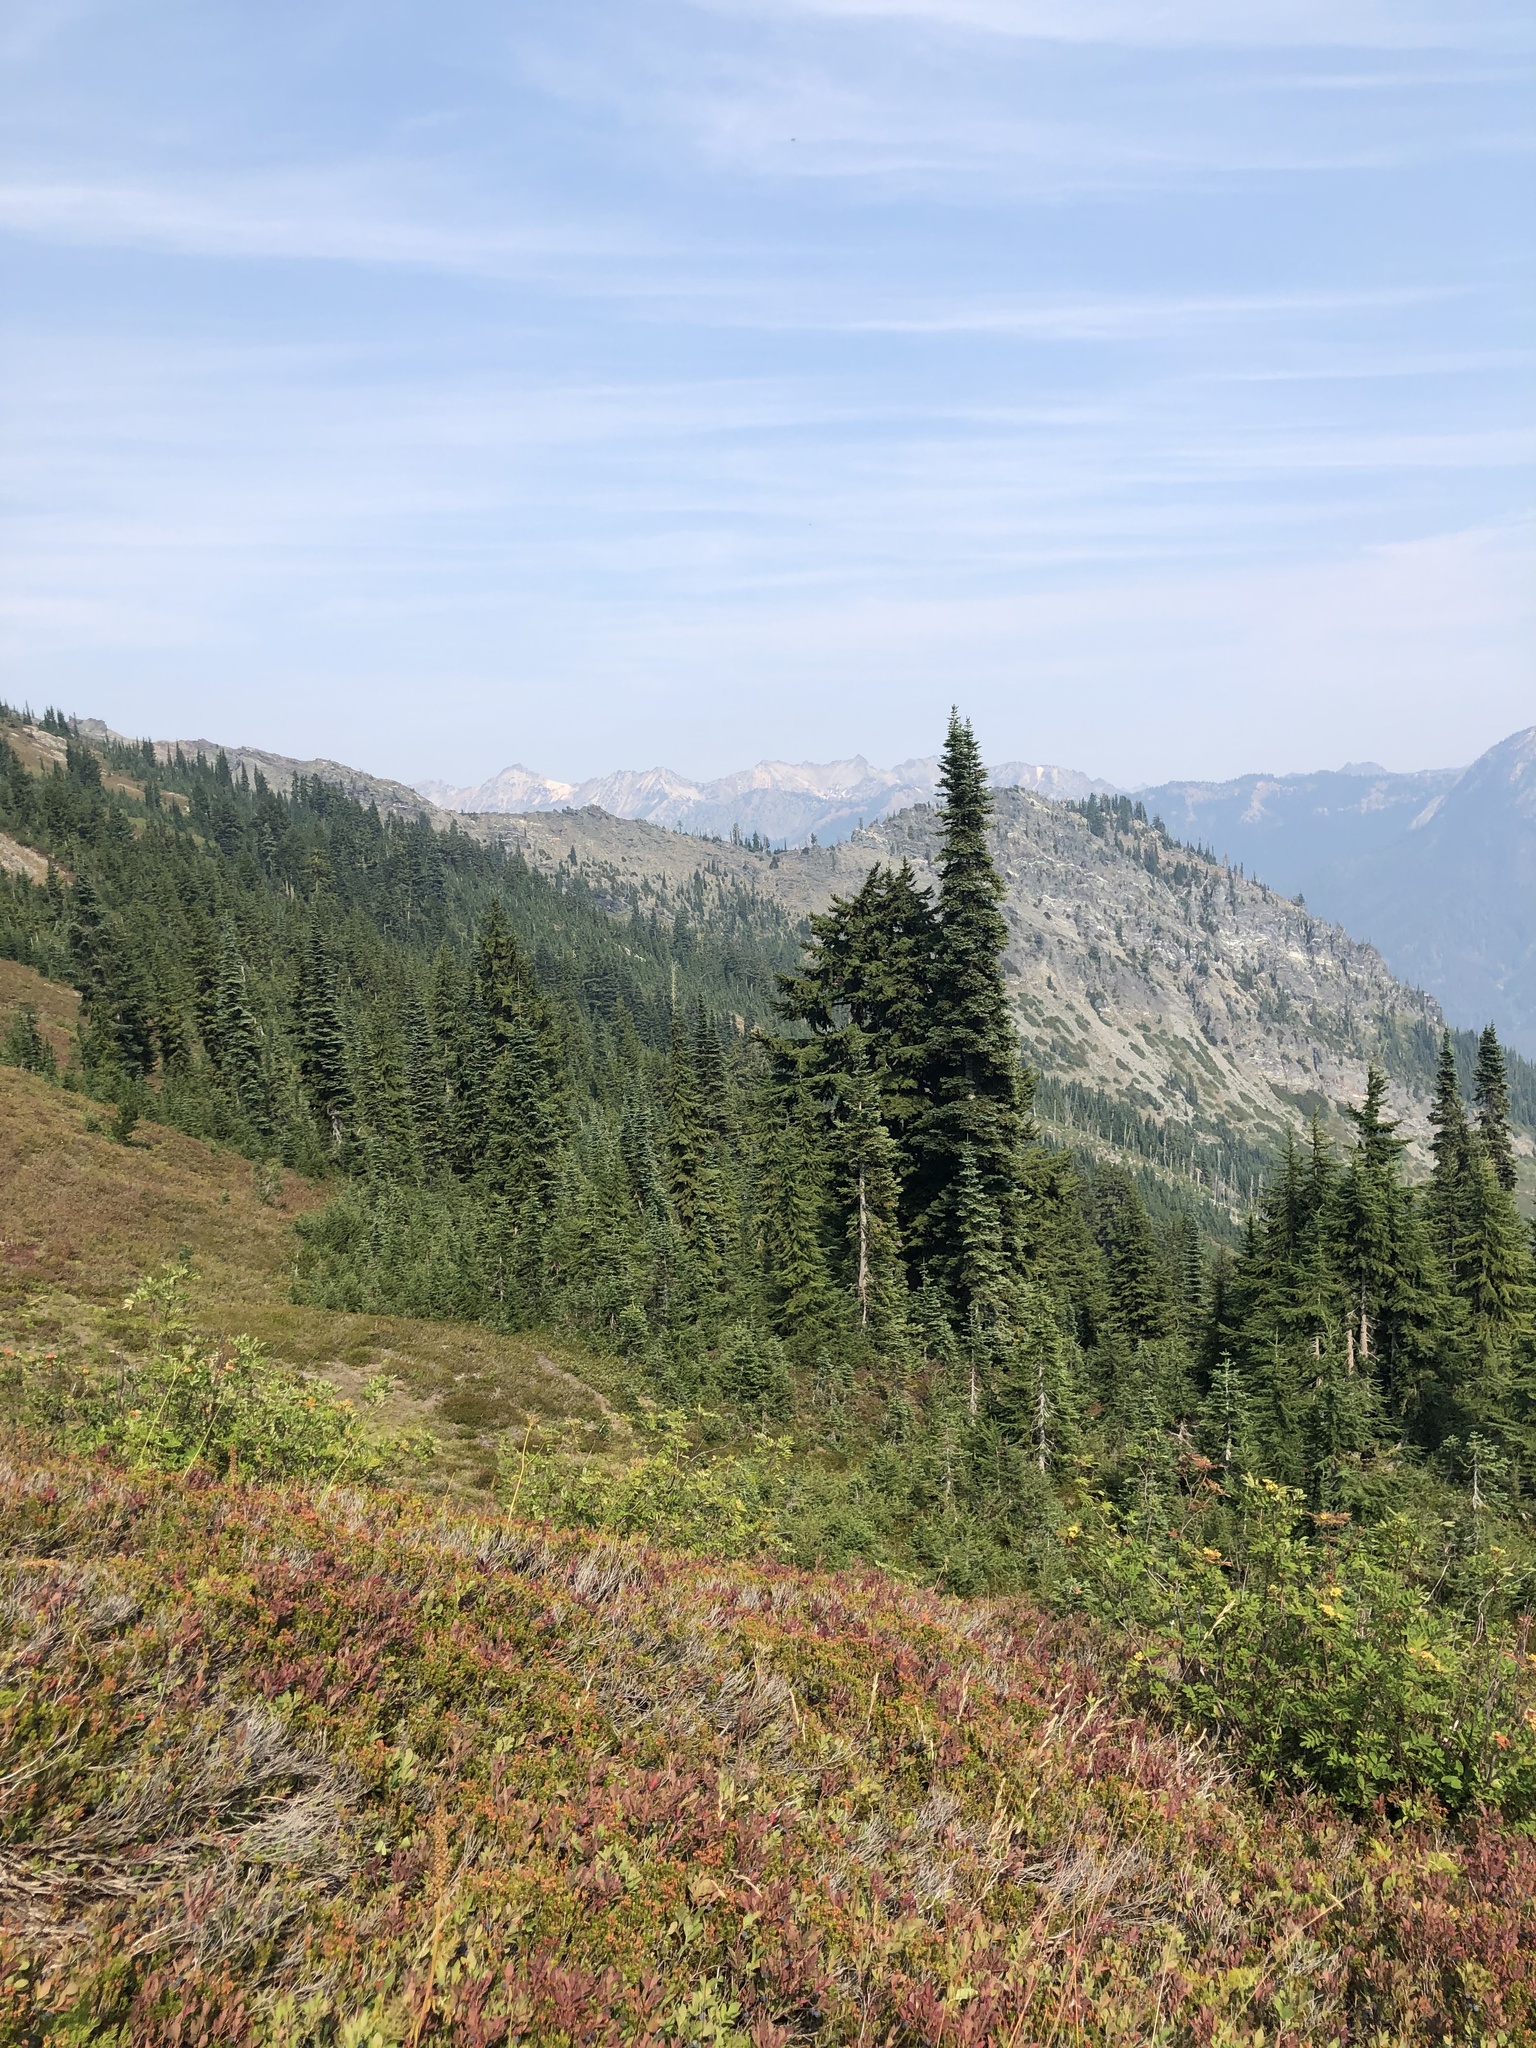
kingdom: Plantae
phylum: Tracheophyta
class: Pinopsida
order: Pinales
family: Pinaceae
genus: Tsuga
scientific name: Tsuga mertensiana
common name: Mountain hemlock
